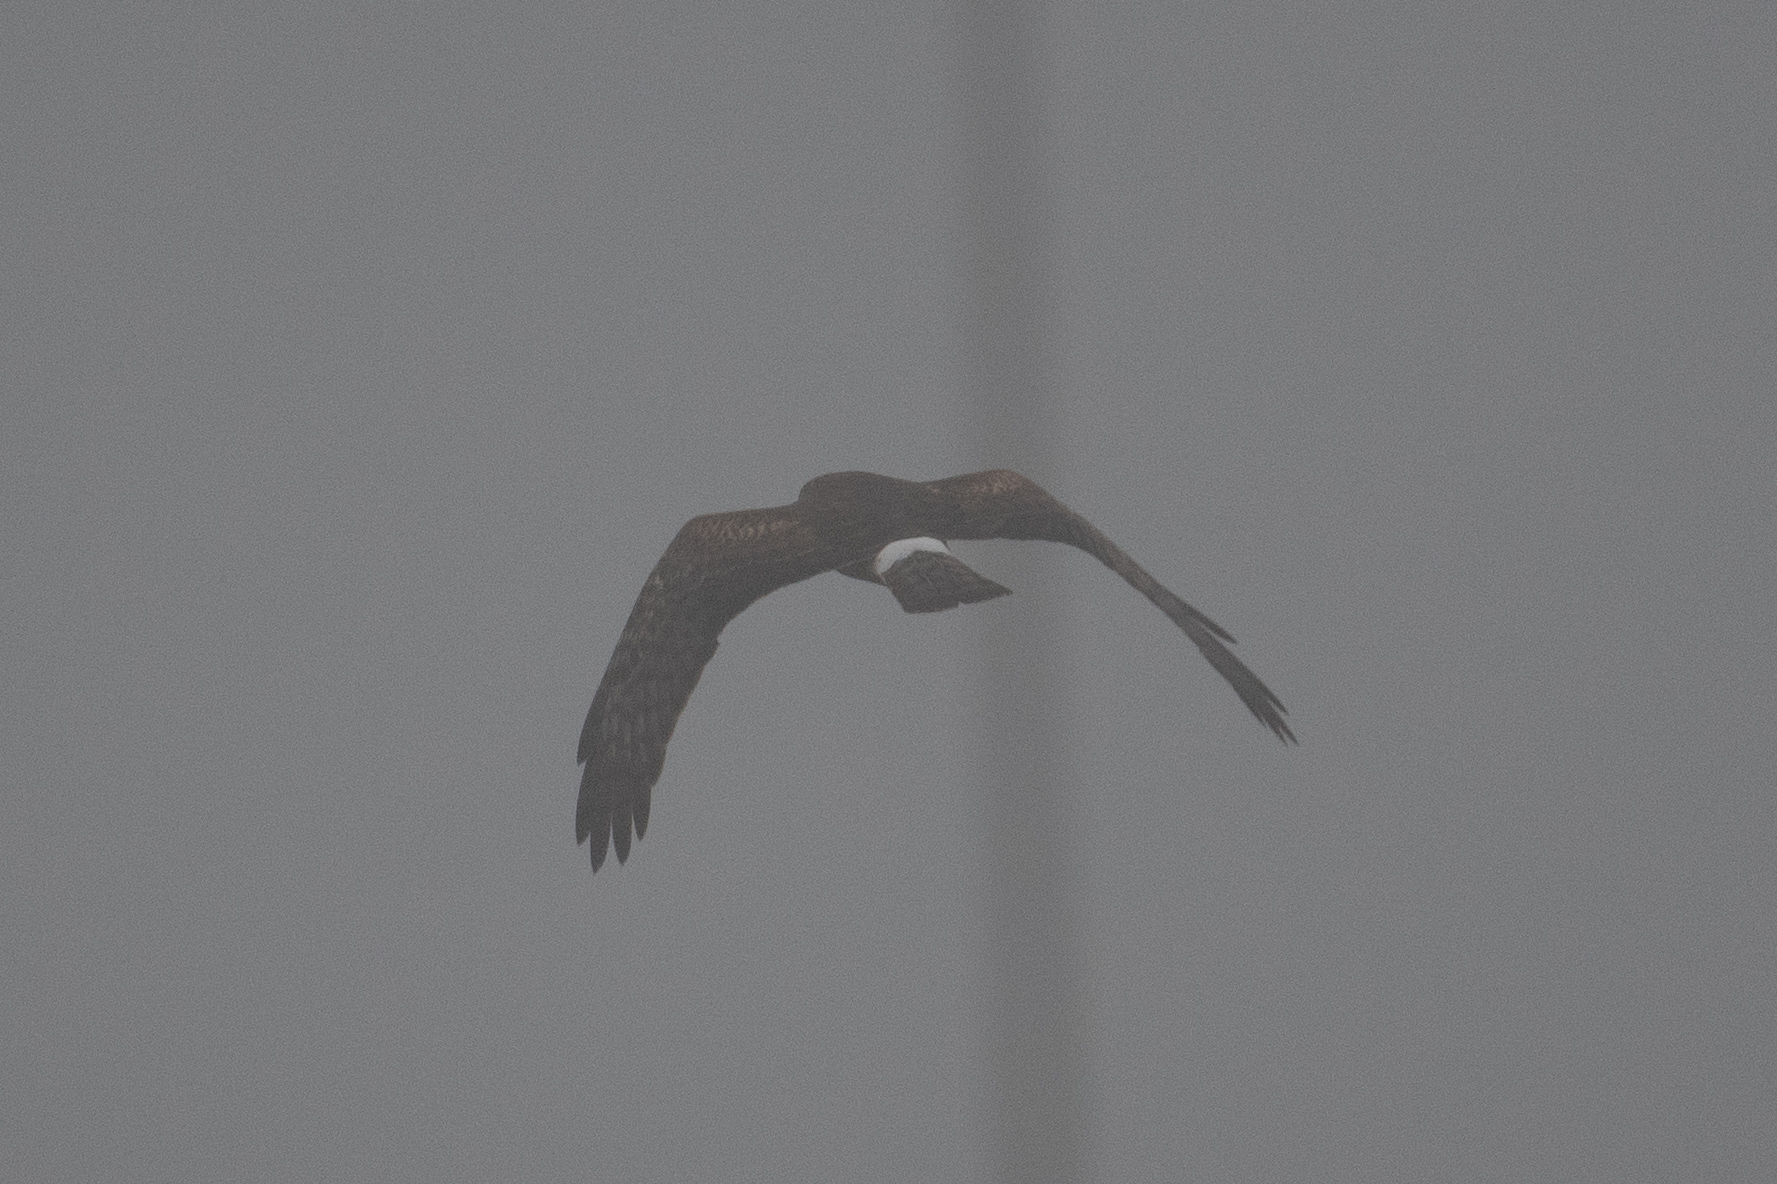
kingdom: Animalia
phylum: Chordata
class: Aves
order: Accipitriformes
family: Accipitridae
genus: Circus
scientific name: Circus cyaneus
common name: Hen harrier
